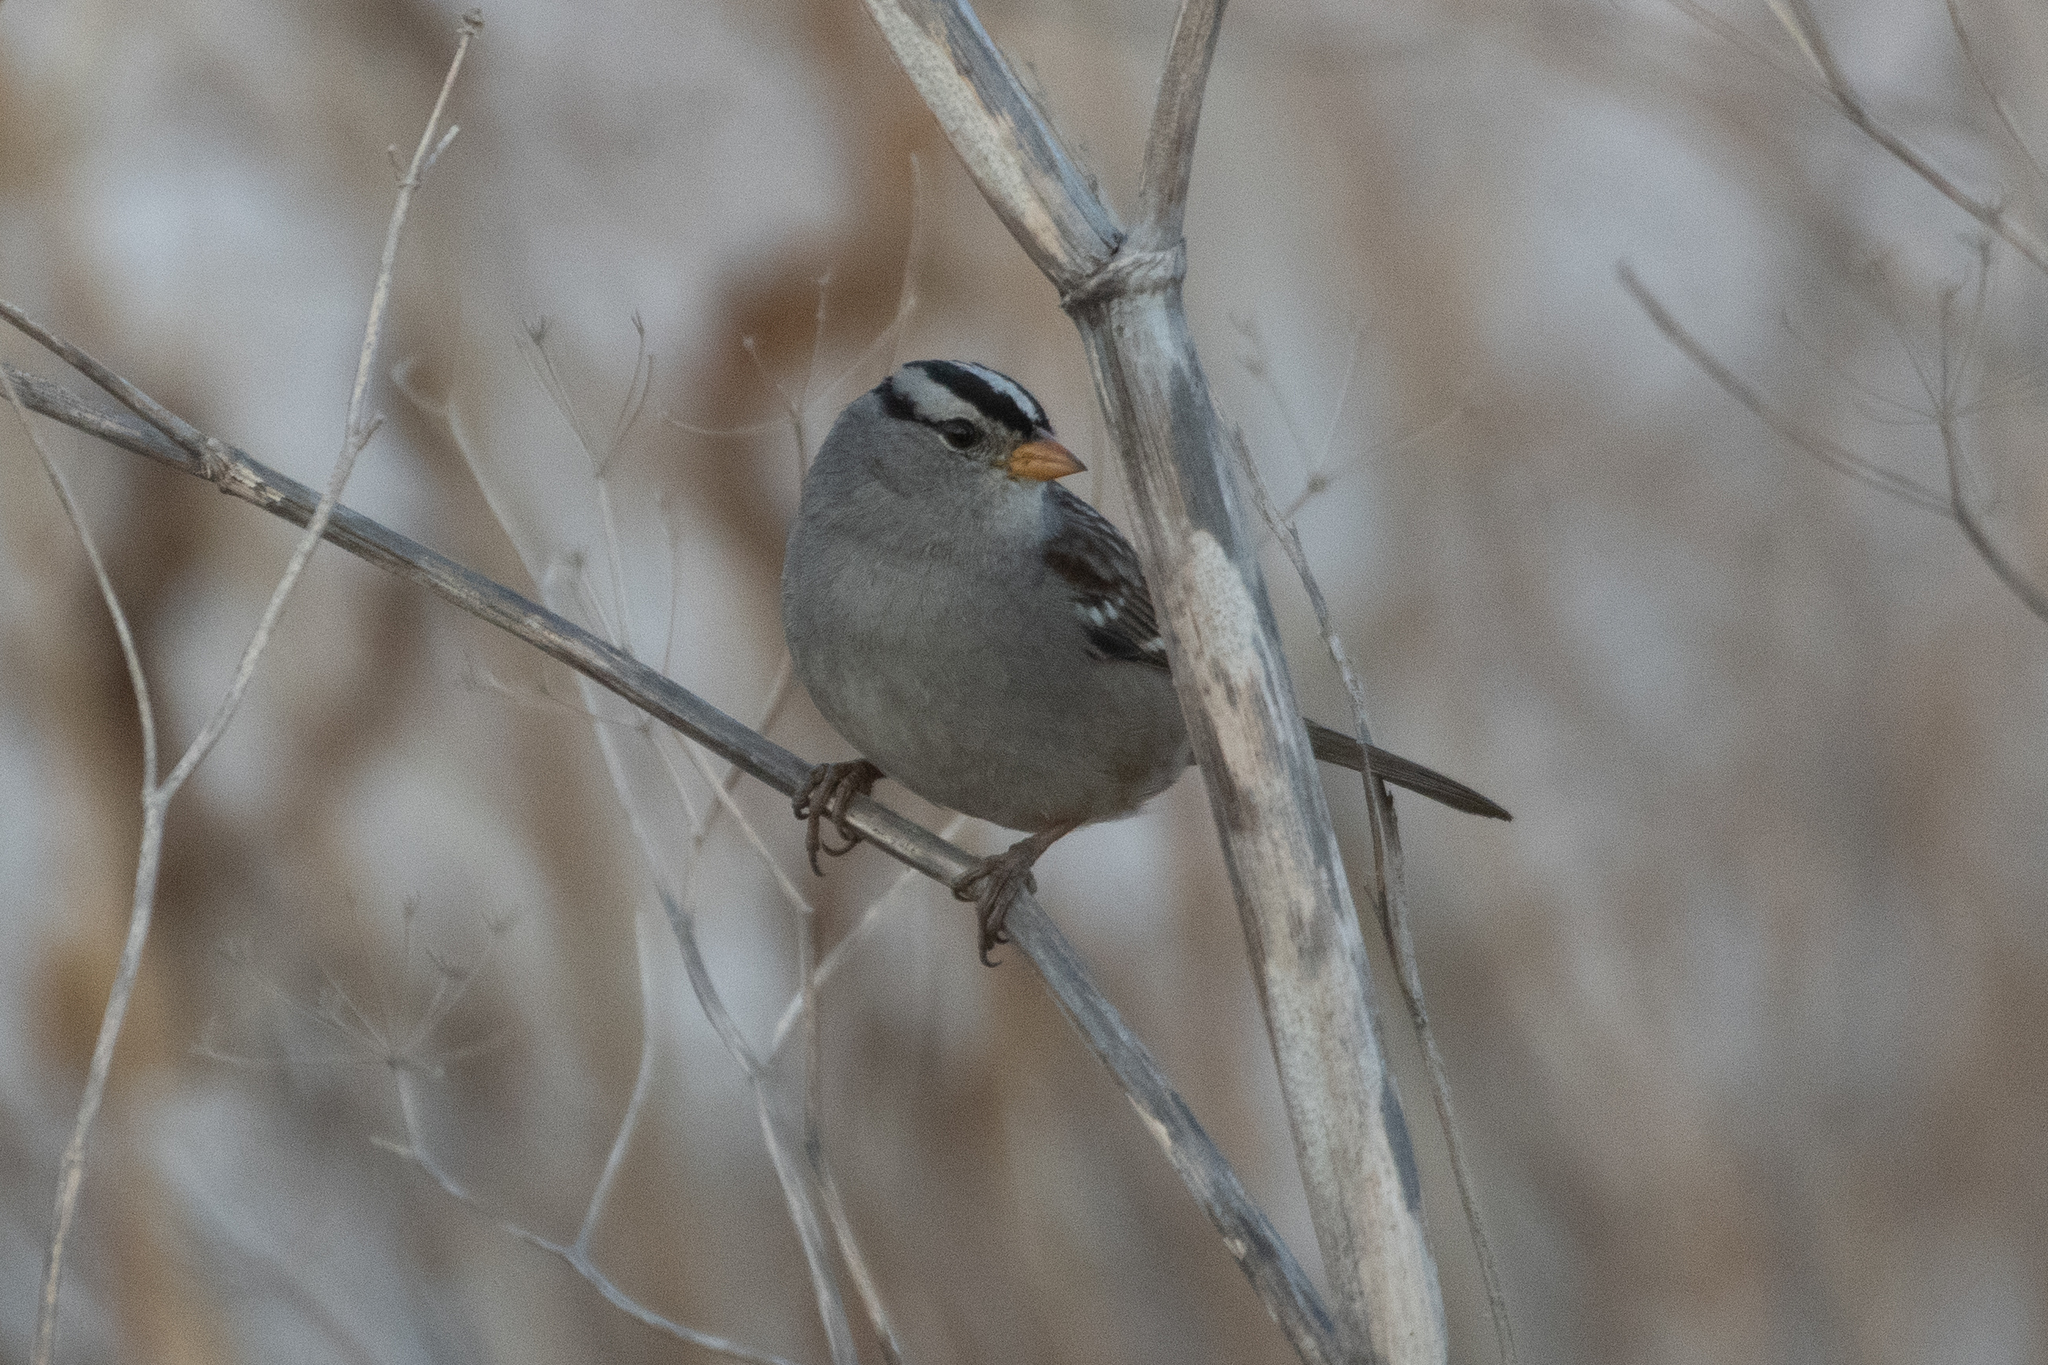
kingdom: Animalia
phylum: Chordata
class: Aves
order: Passeriformes
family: Passerellidae
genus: Zonotrichia
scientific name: Zonotrichia leucophrys
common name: White-crowned sparrow
